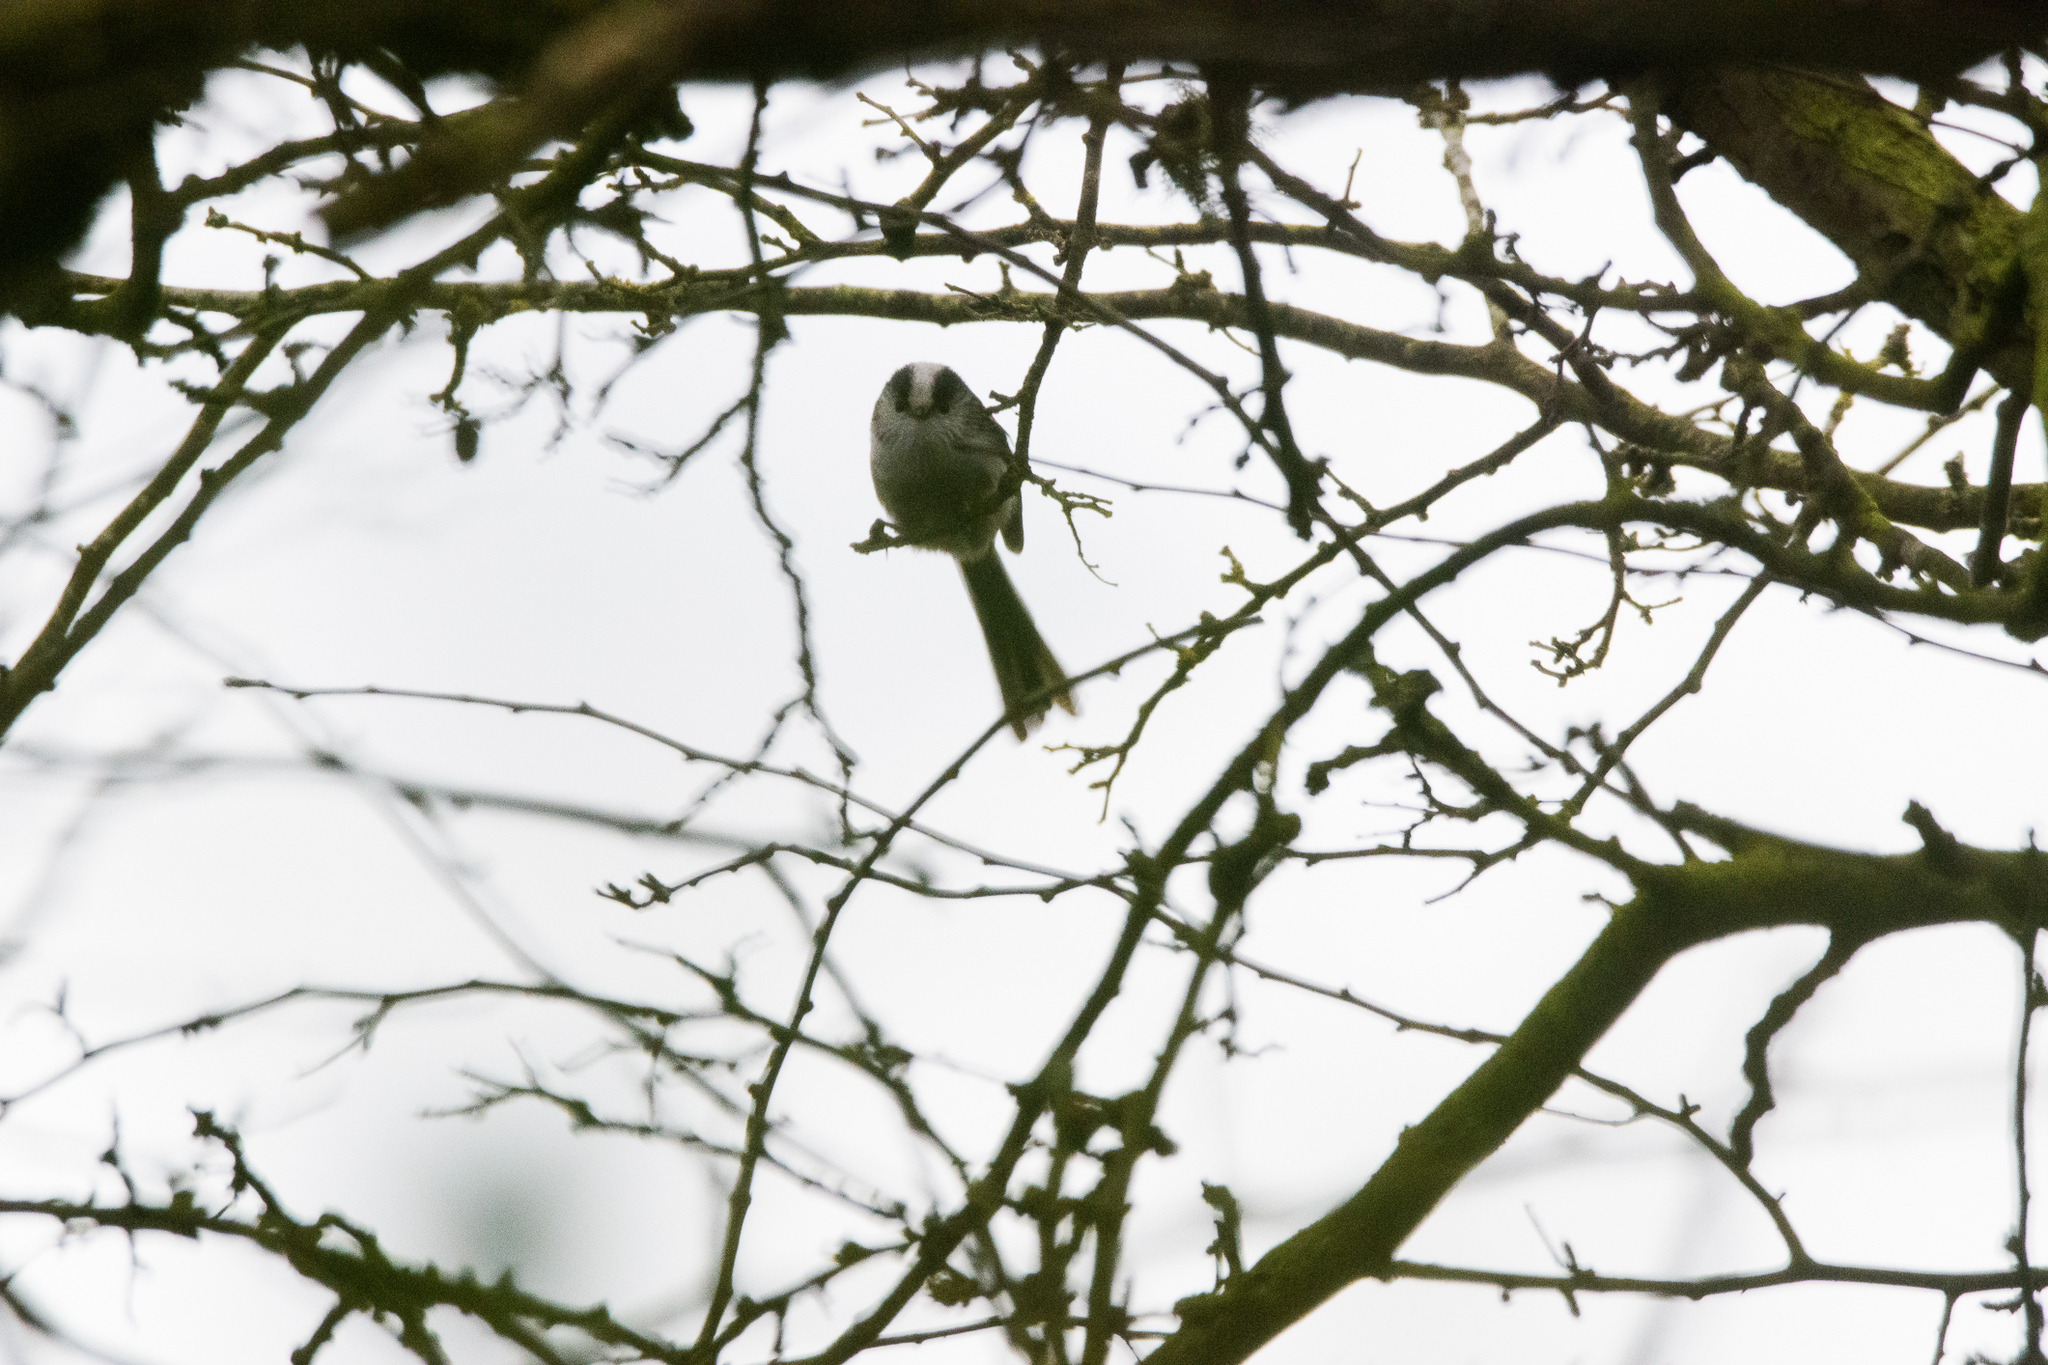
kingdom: Animalia
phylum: Chordata
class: Aves
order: Passeriformes
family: Aegithalidae
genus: Aegithalos
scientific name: Aegithalos caudatus
